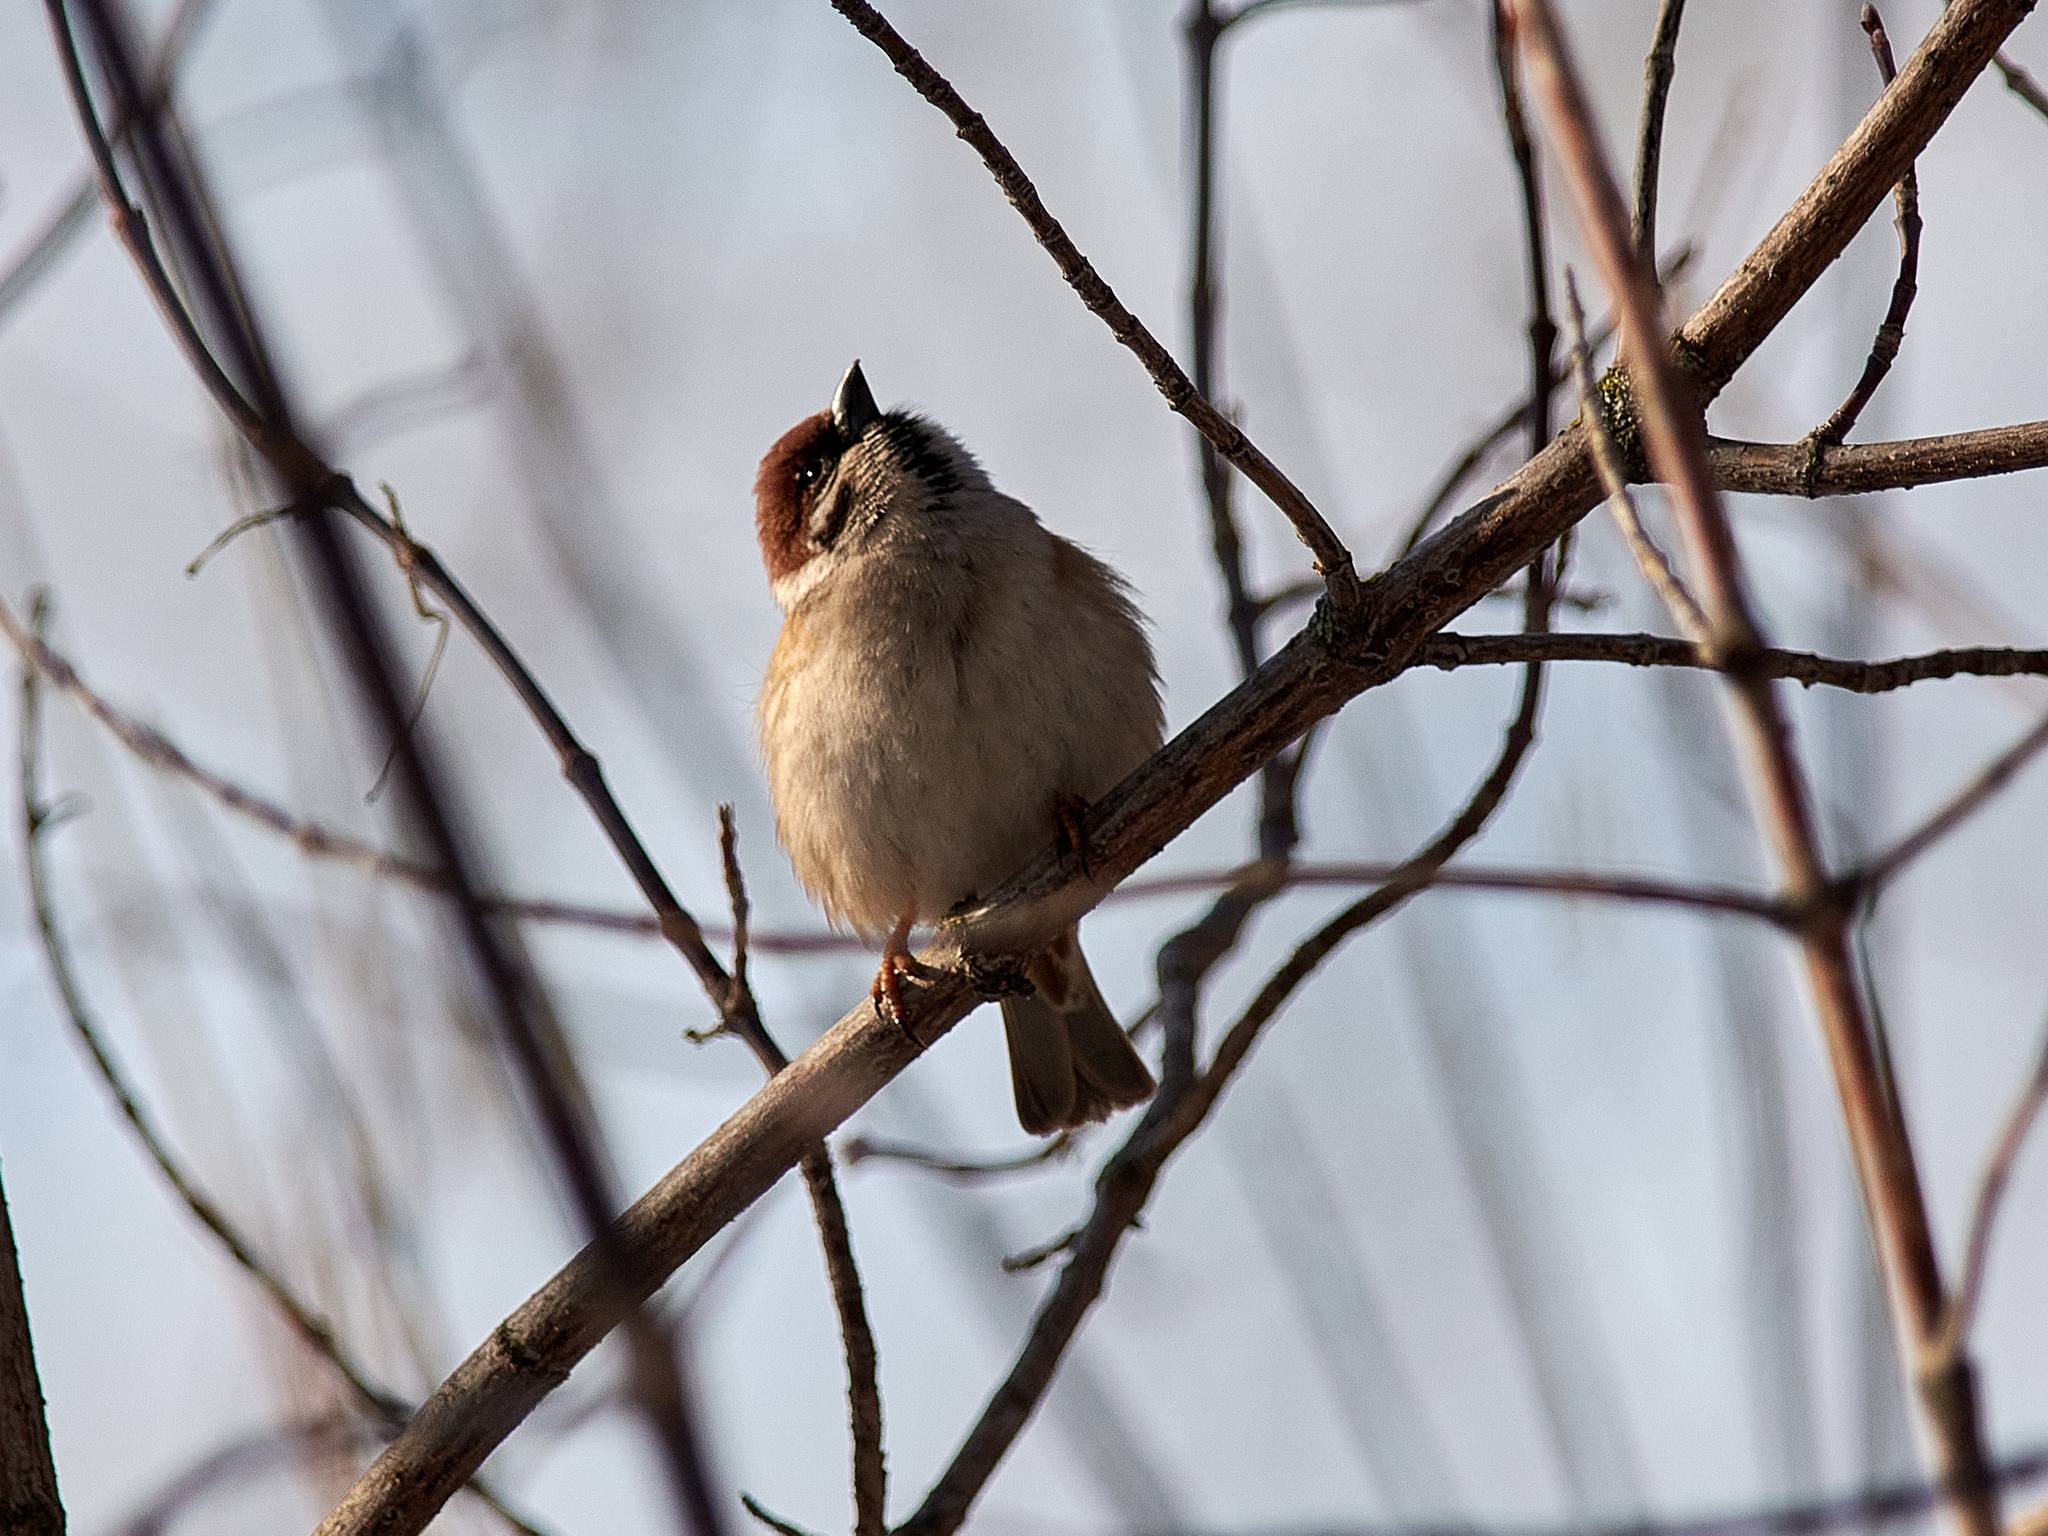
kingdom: Animalia
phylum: Chordata
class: Aves
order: Passeriformes
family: Passeridae
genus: Passer
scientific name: Passer montanus
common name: Eurasian tree sparrow
